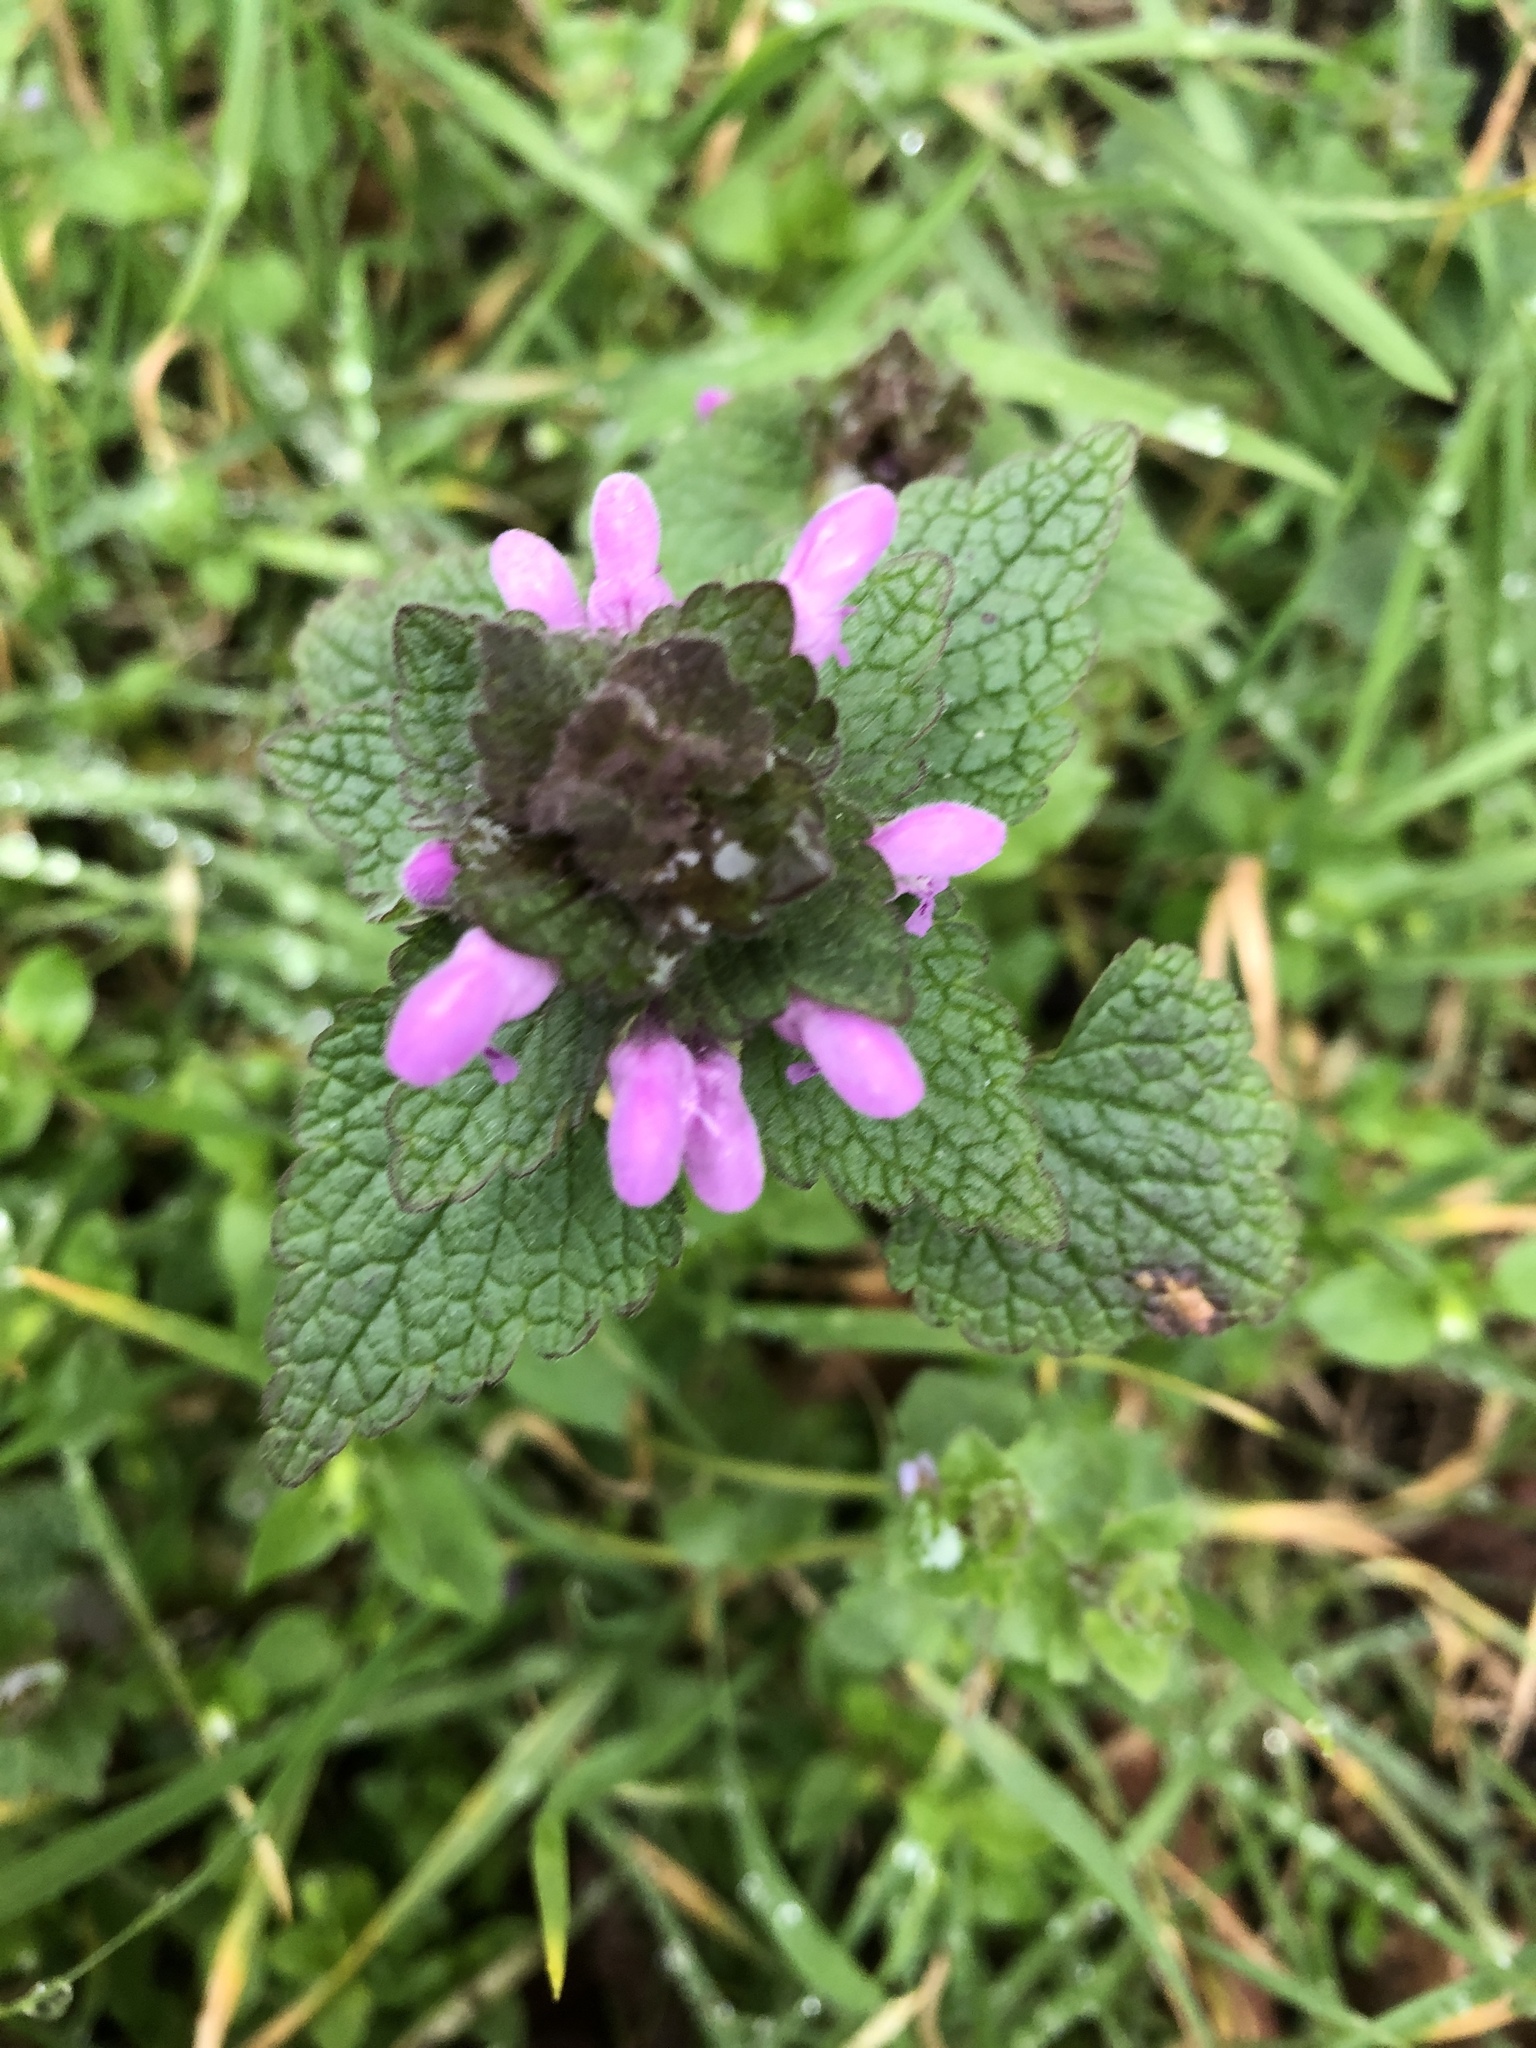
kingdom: Plantae
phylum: Tracheophyta
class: Magnoliopsida
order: Lamiales
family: Lamiaceae
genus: Lamium
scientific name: Lamium purpureum
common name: Red dead-nettle
